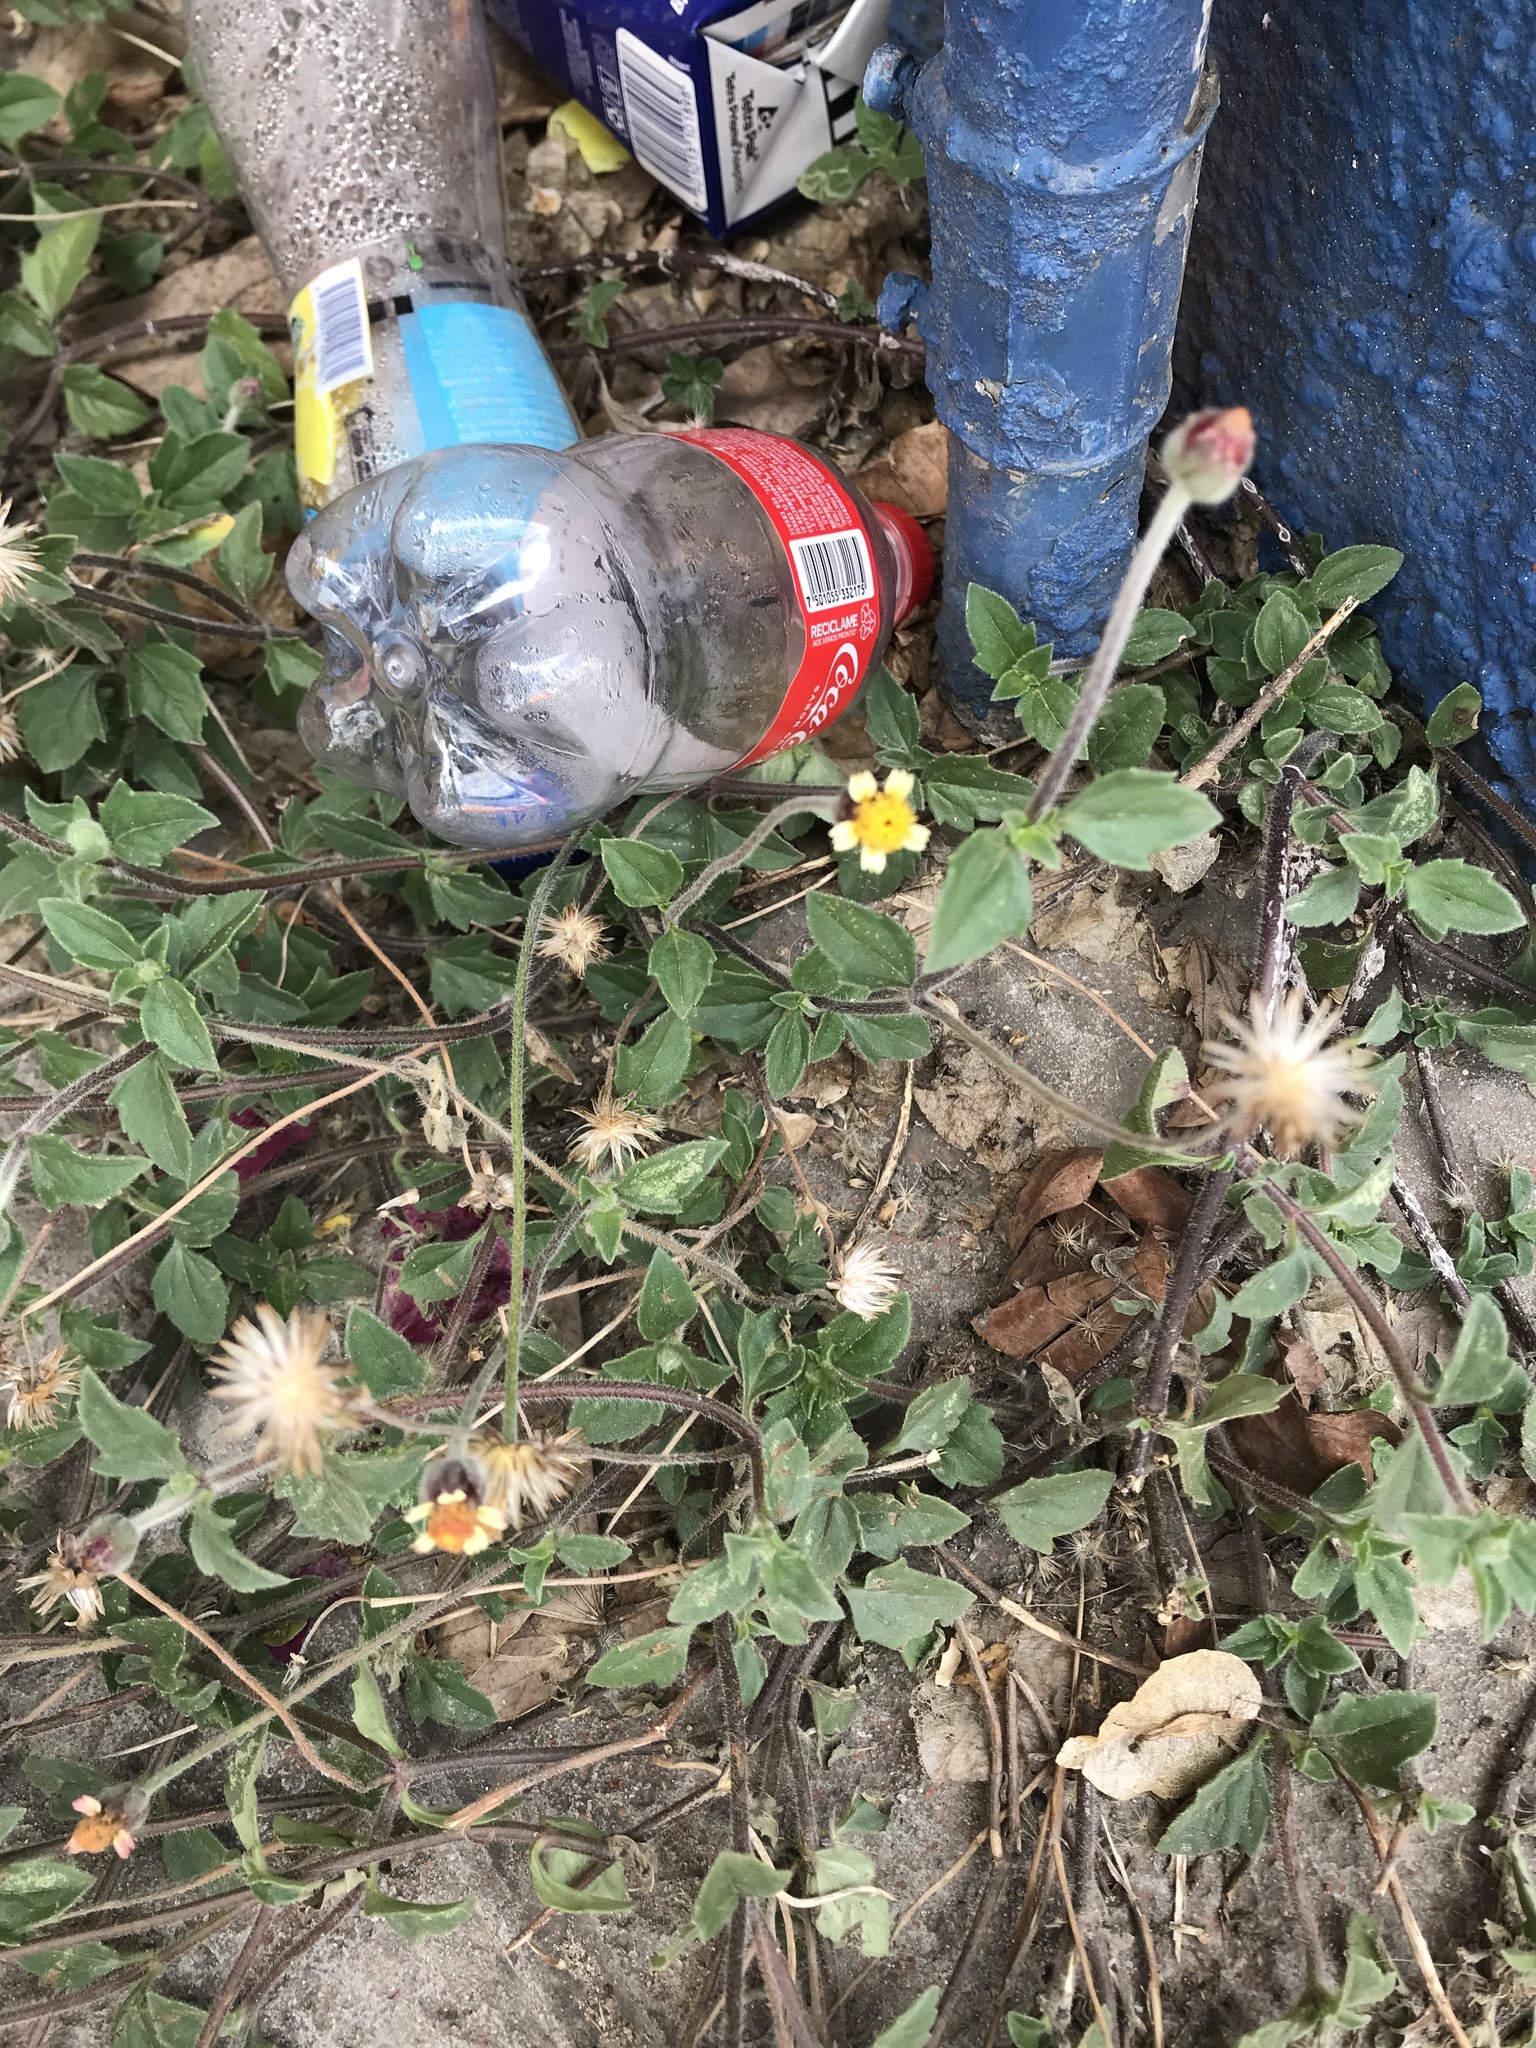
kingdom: Plantae
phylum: Tracheophyta
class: Magnoliopsida
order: Asterales
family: Asteraceae
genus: Tridax
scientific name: Tridax procumbens
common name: Coatbuttons
